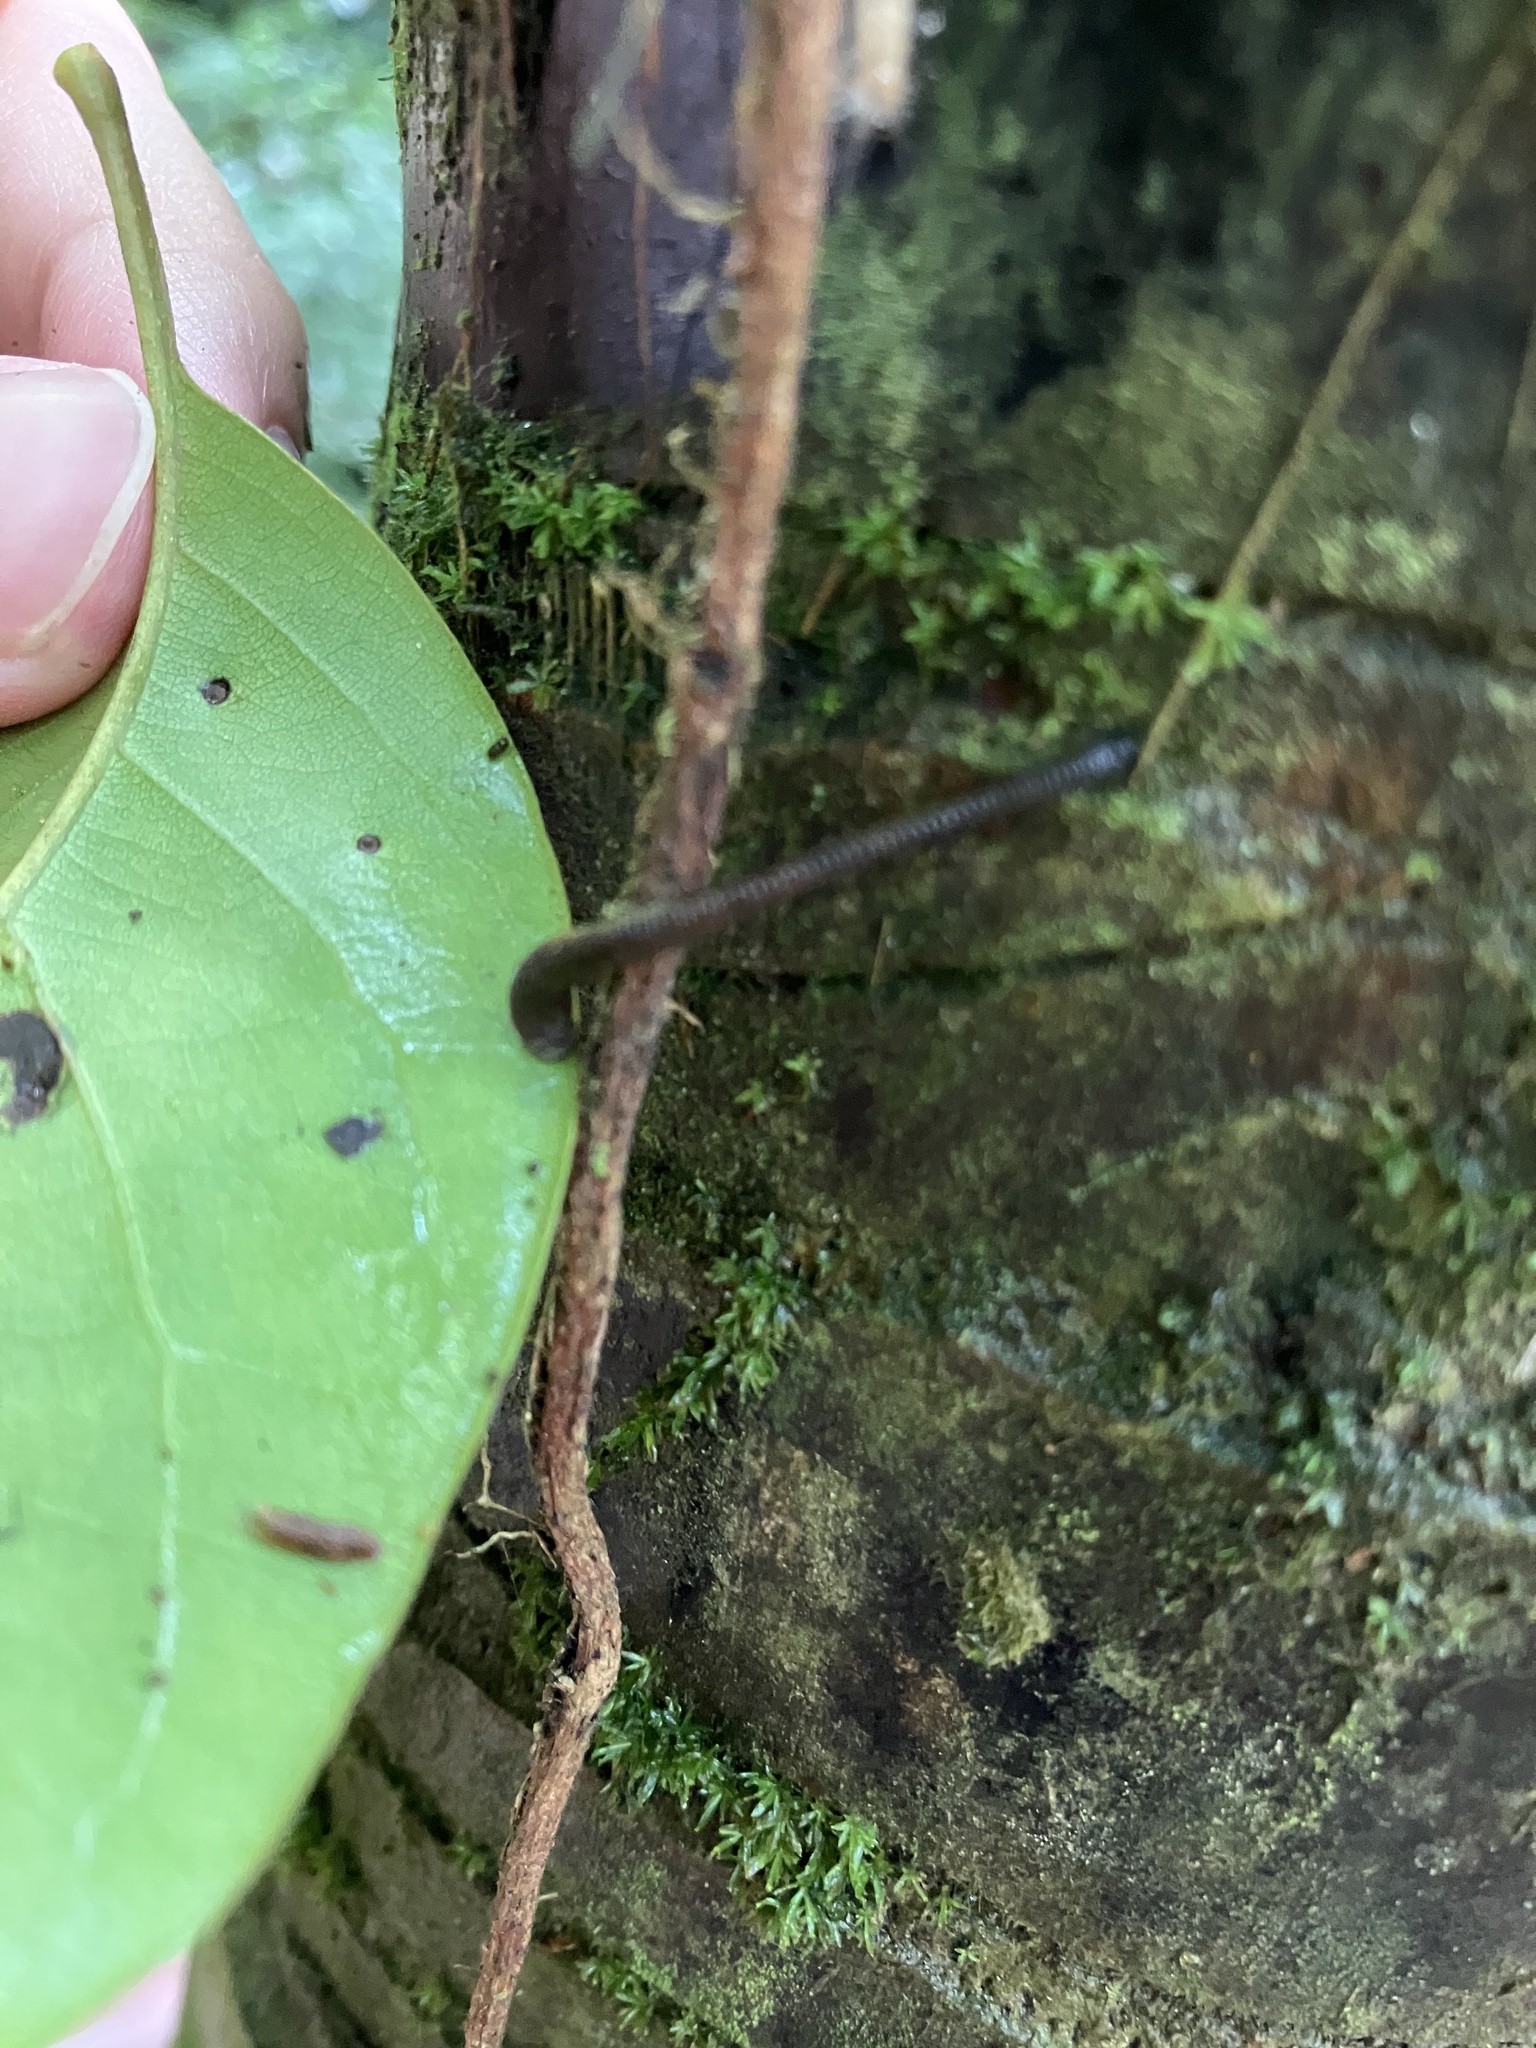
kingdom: Animalia
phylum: Annelida
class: Clitellata
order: Arhynchobdellida
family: Haemadipsidae
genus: Haemadipsa
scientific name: Haemadipsa rjukjuana
